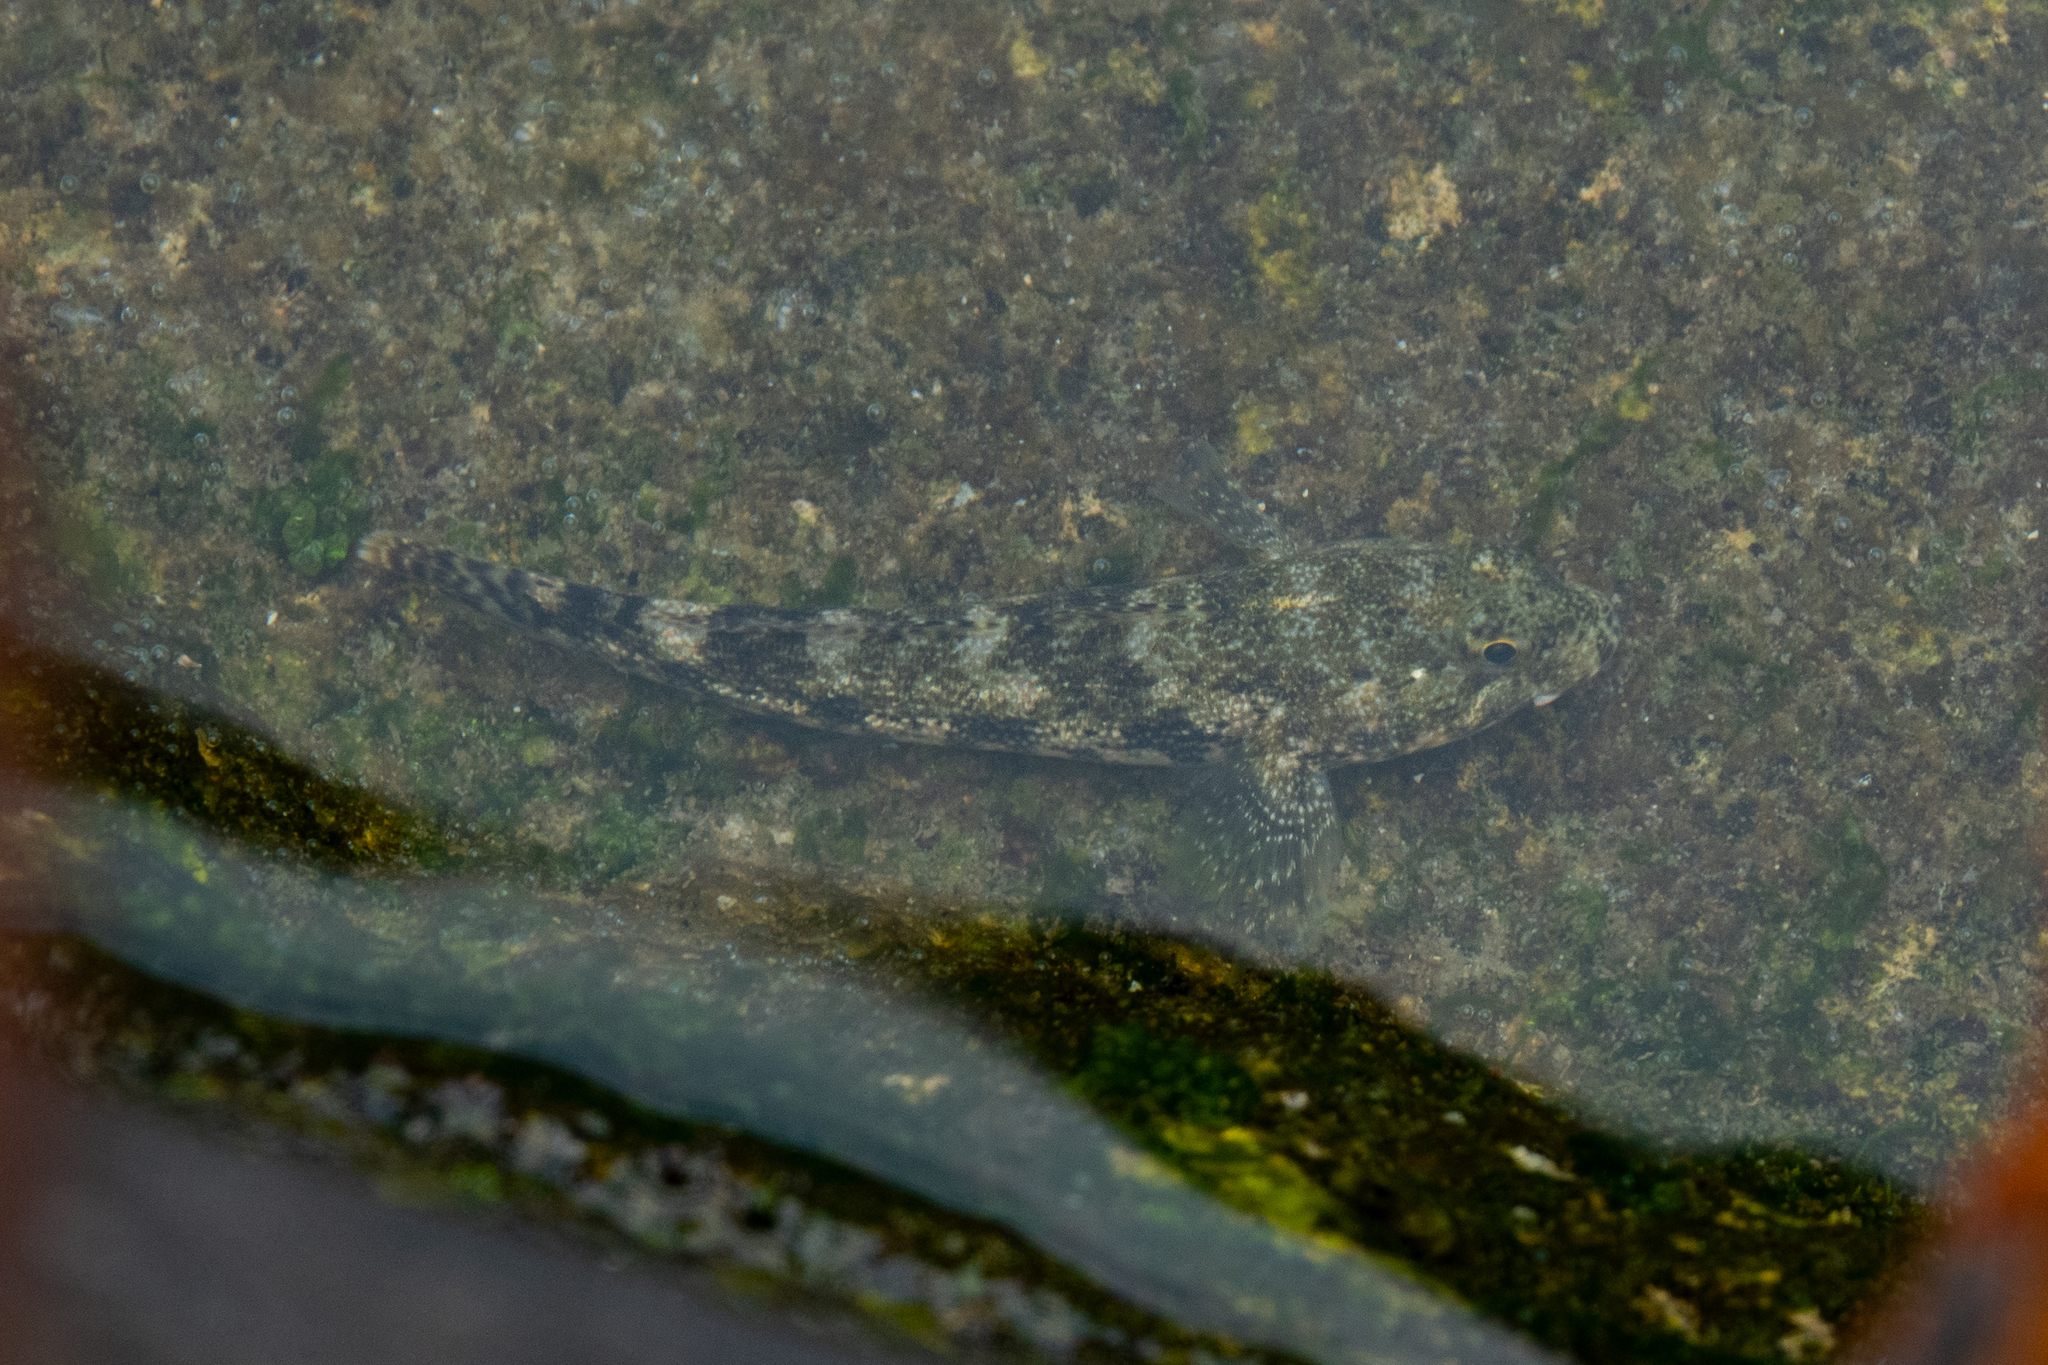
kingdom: Animalia
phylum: Chordata
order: Perciformes
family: Gobiidae
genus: Gobius
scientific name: Gobius cobitis
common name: Giant goby
